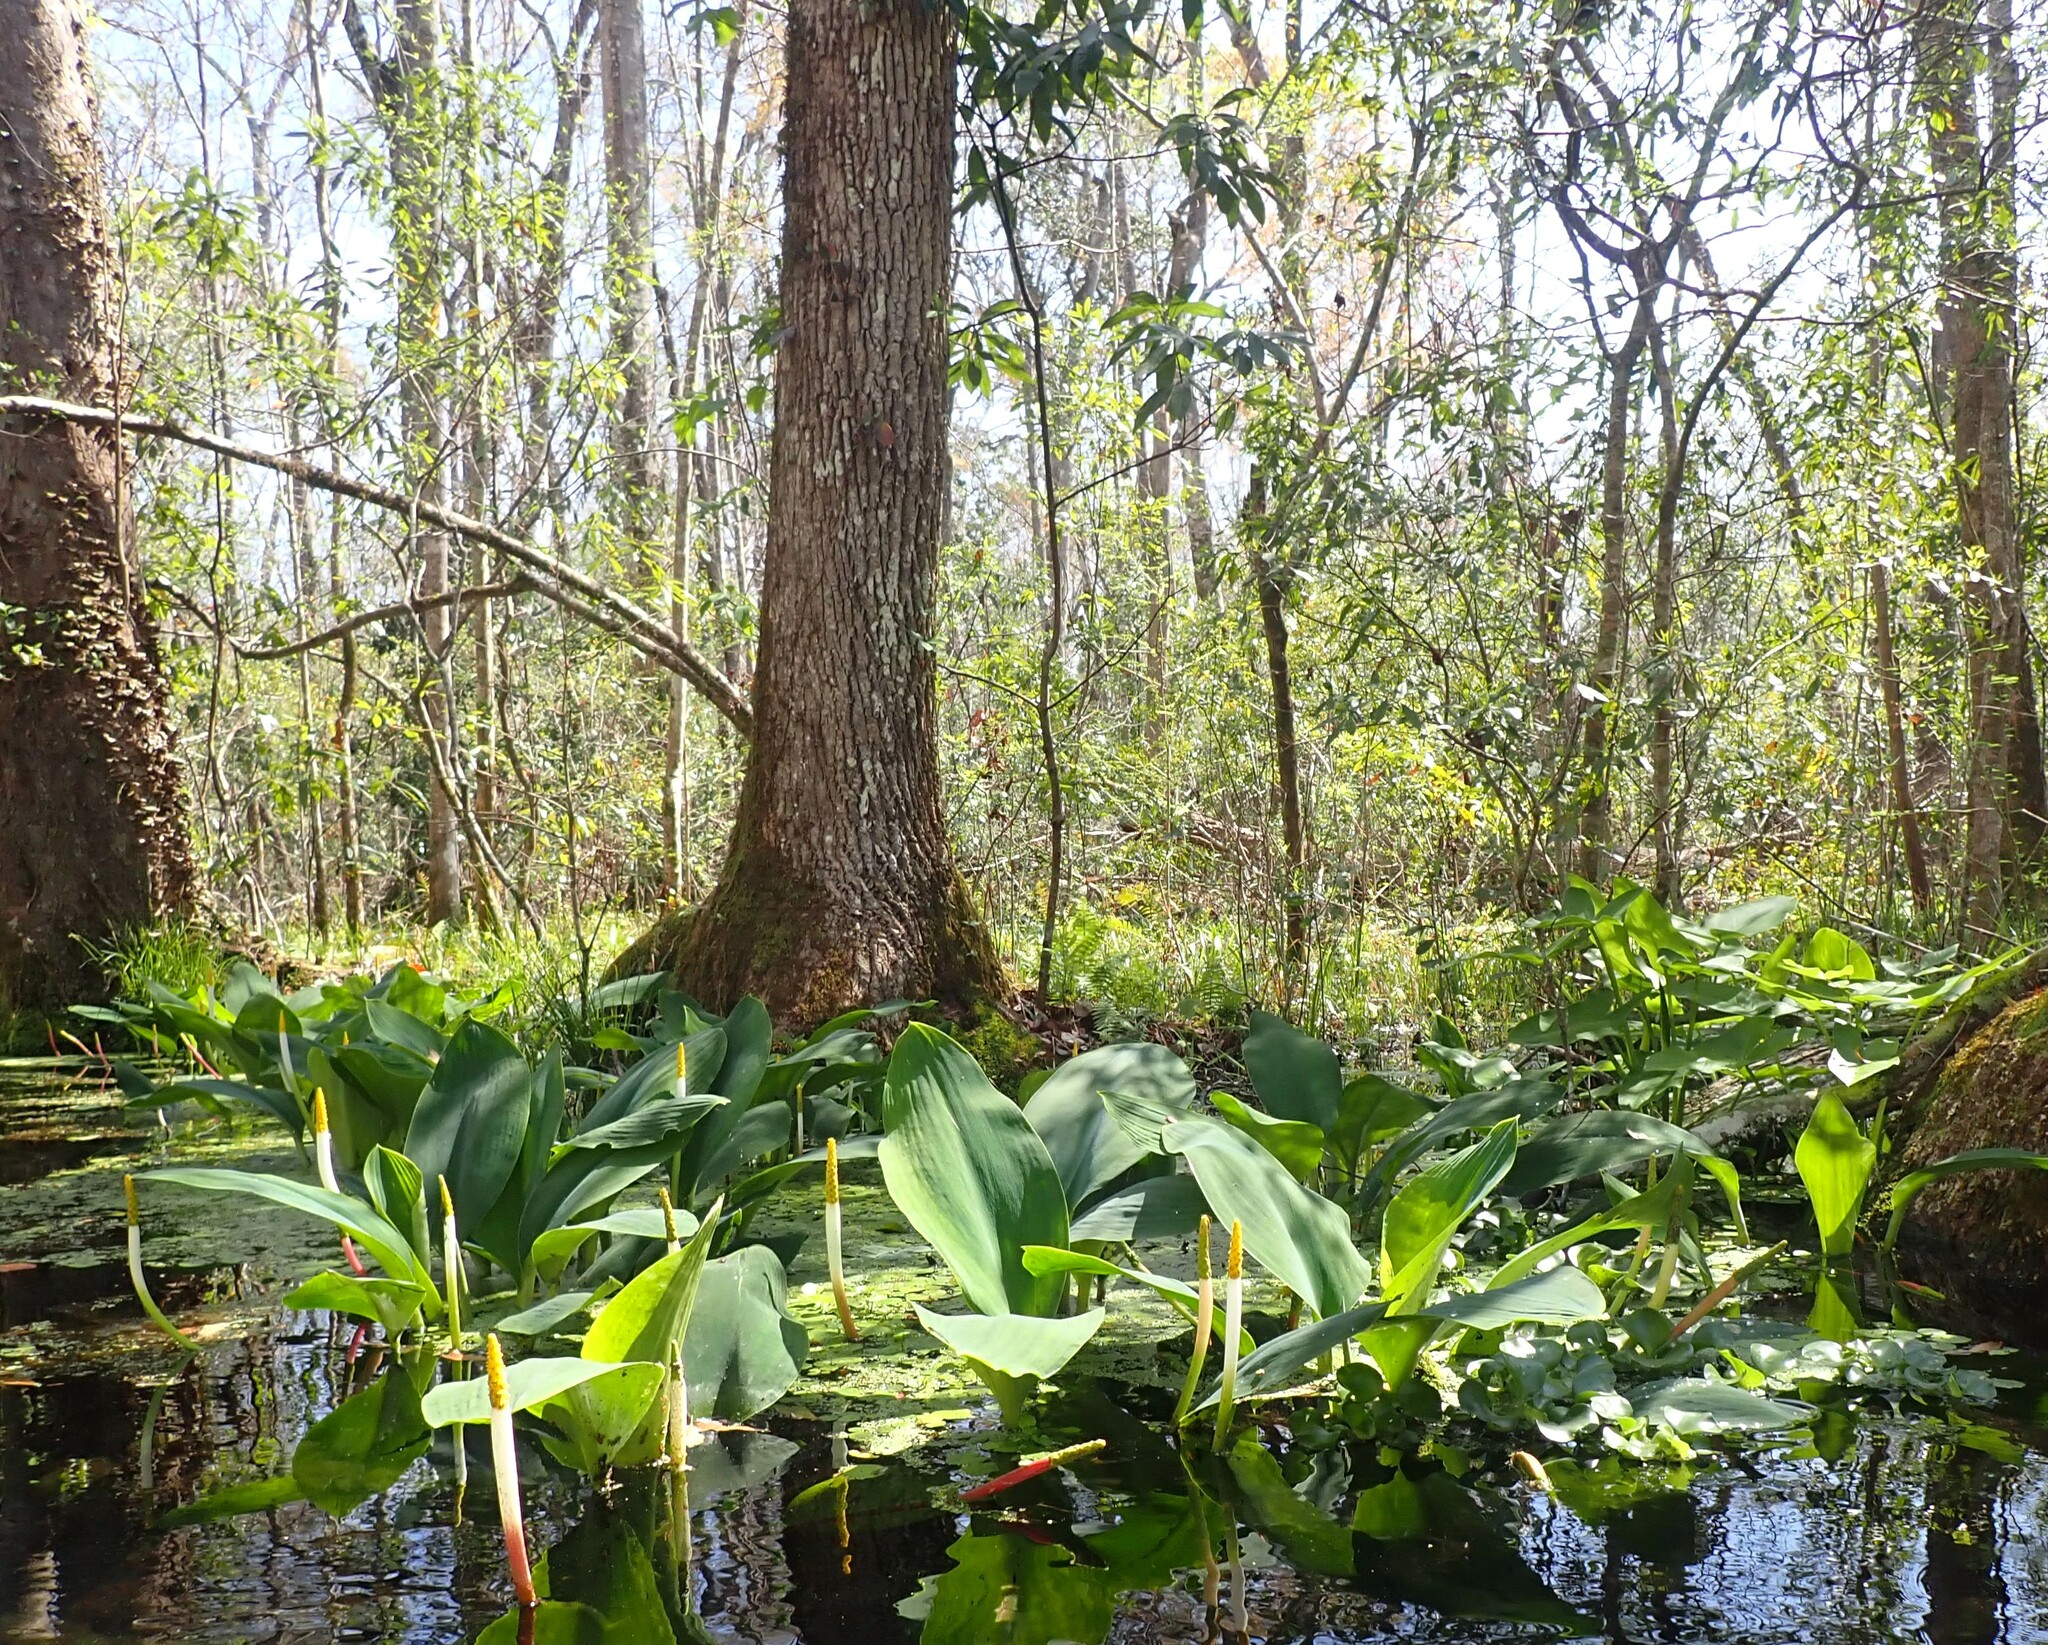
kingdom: Plantae
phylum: Tracheophyta
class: Liliopsida
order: Alismatales
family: Araceae
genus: Orontium
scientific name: Orontium aquaticum
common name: Golden-club
